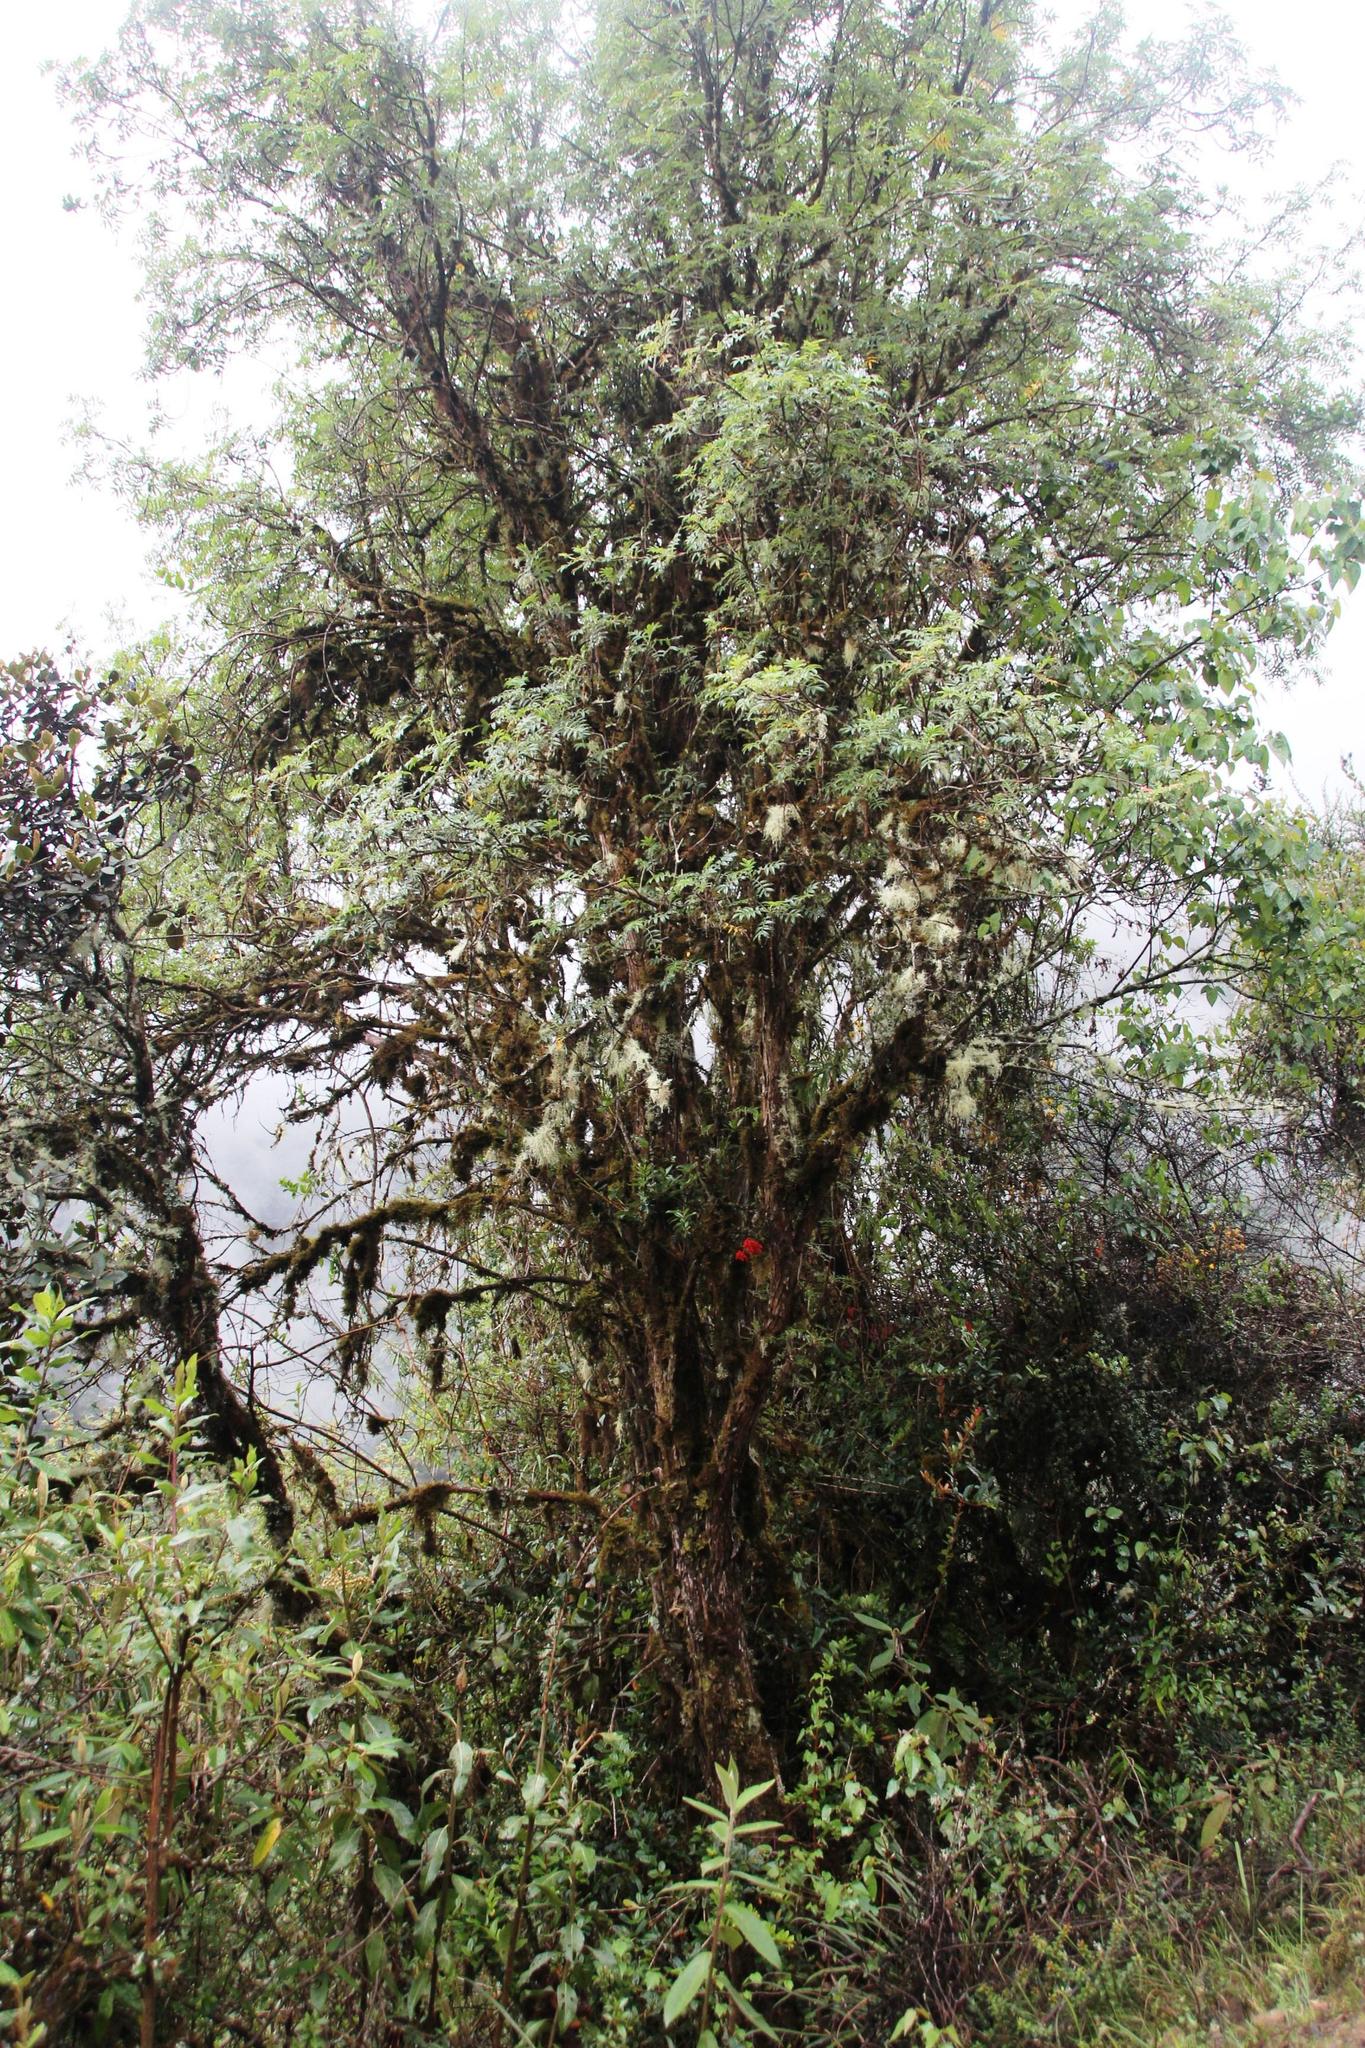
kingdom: Plantae
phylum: Tracheophyta
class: Liliopsida
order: Asparagales
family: Orchidaceae
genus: Epidendrum
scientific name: Epidendrum ardens
